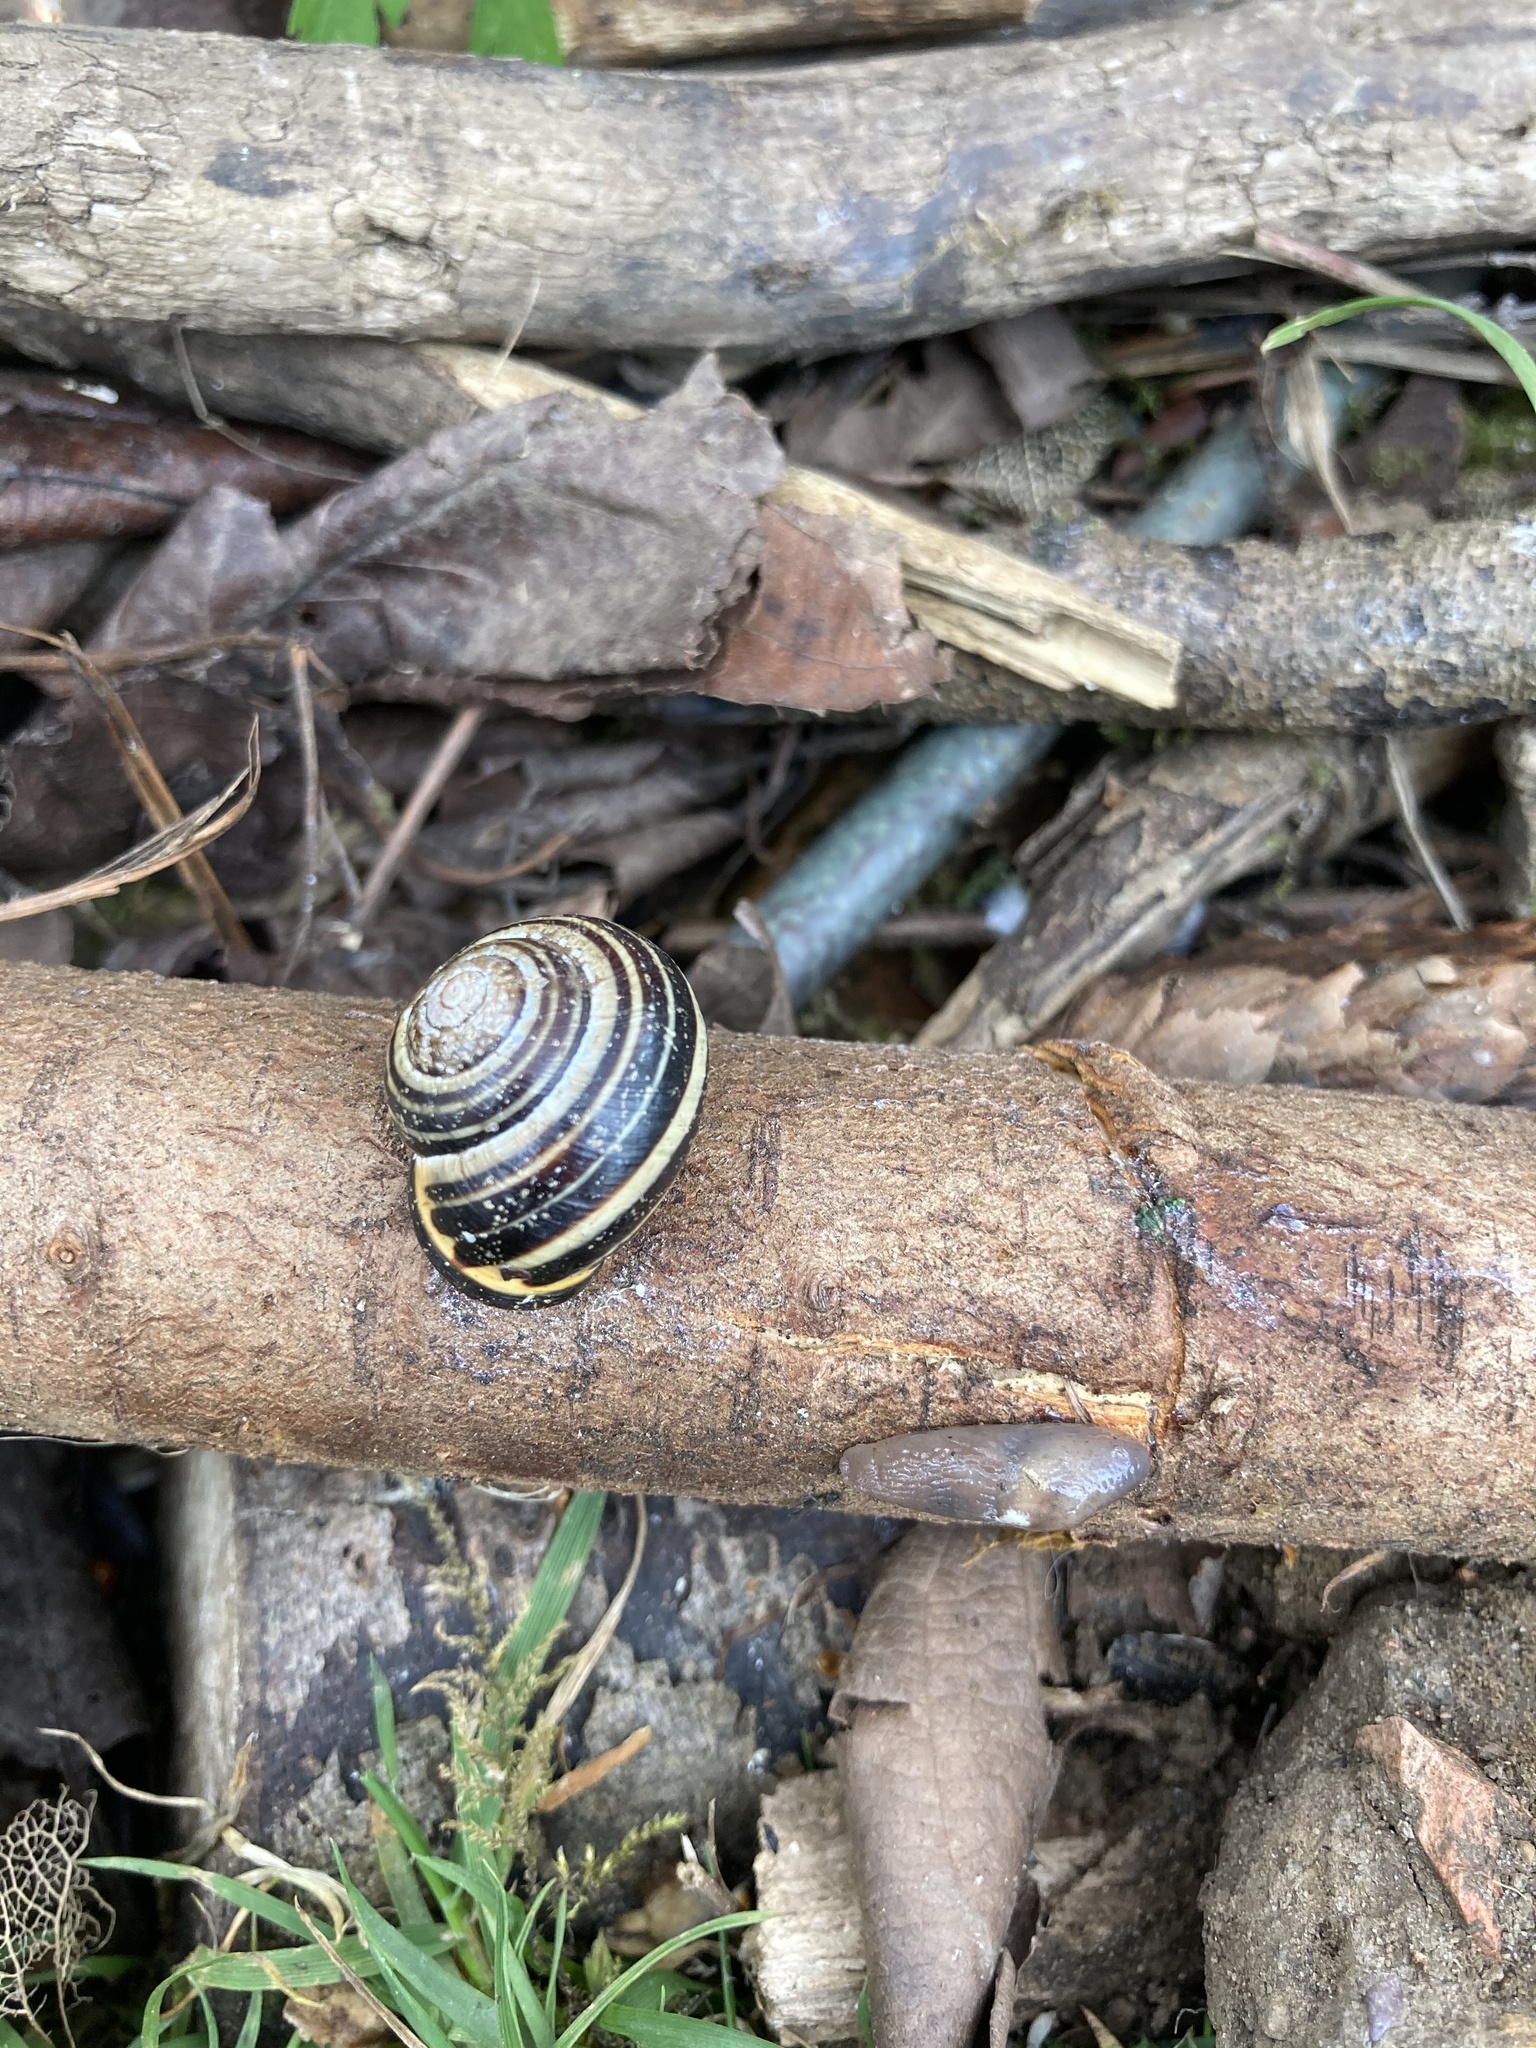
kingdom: Animalia
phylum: Mollusca
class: Gastropoda
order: Stylommatophora
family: Helicidae
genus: Cepaea
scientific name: Cepaea nemoralis
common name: Grovesnail
